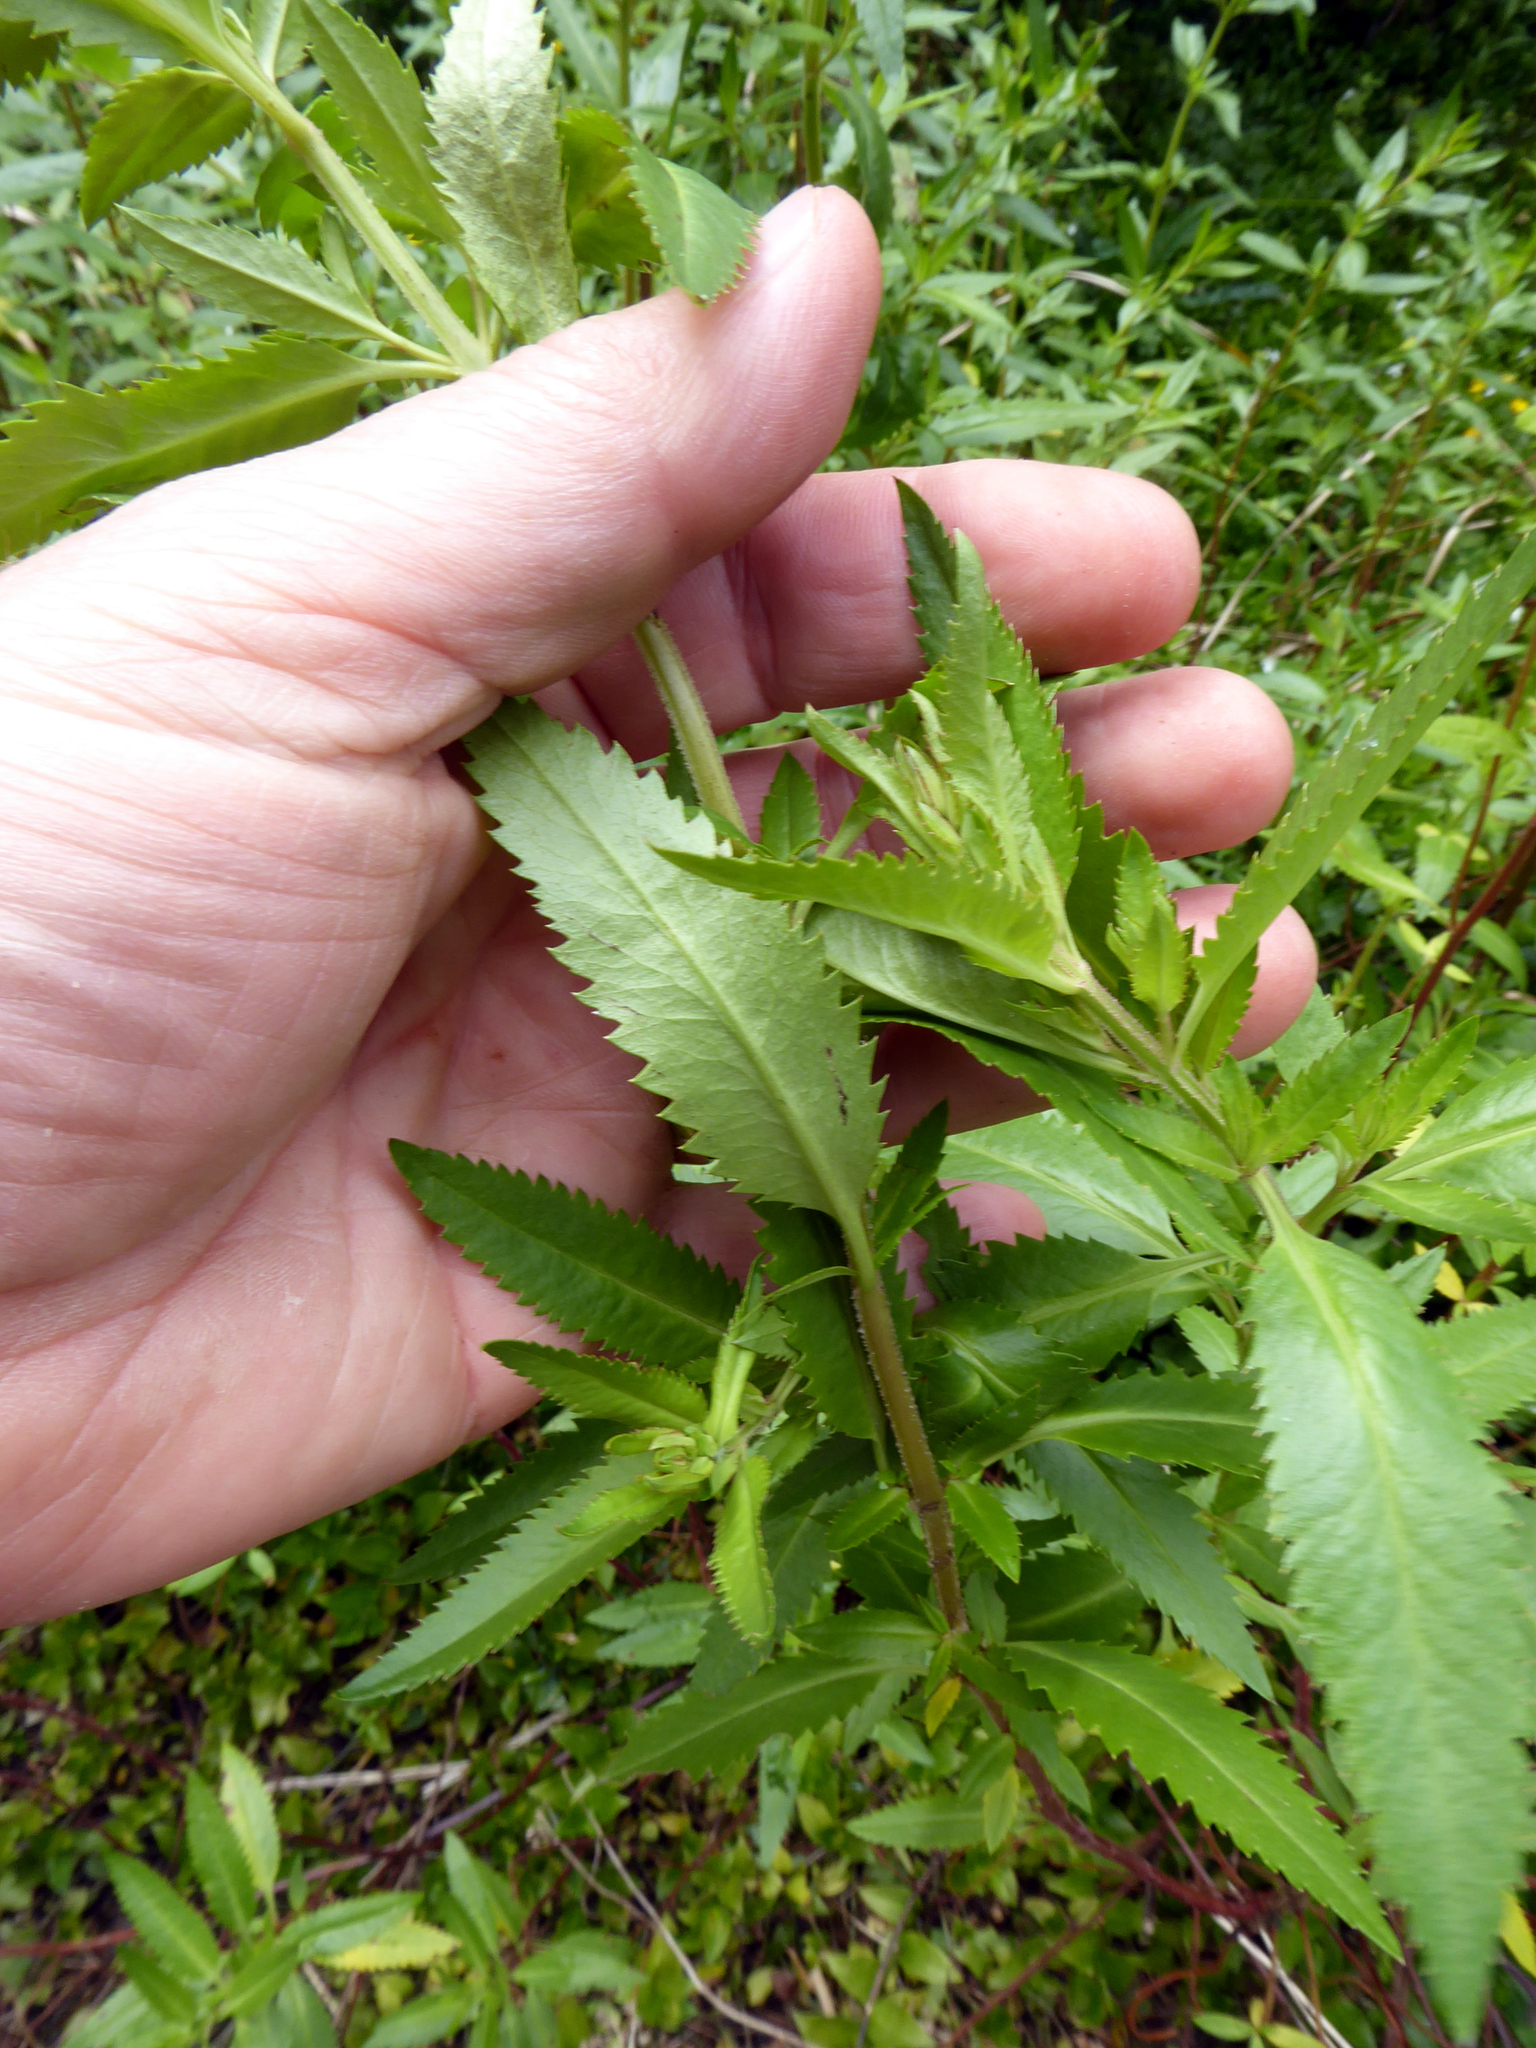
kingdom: Plantae
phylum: Tracheophyta
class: Magnoliopsida
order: Saxifragales
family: Haloragaceae
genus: Haloragis
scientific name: Haloragis erecta
